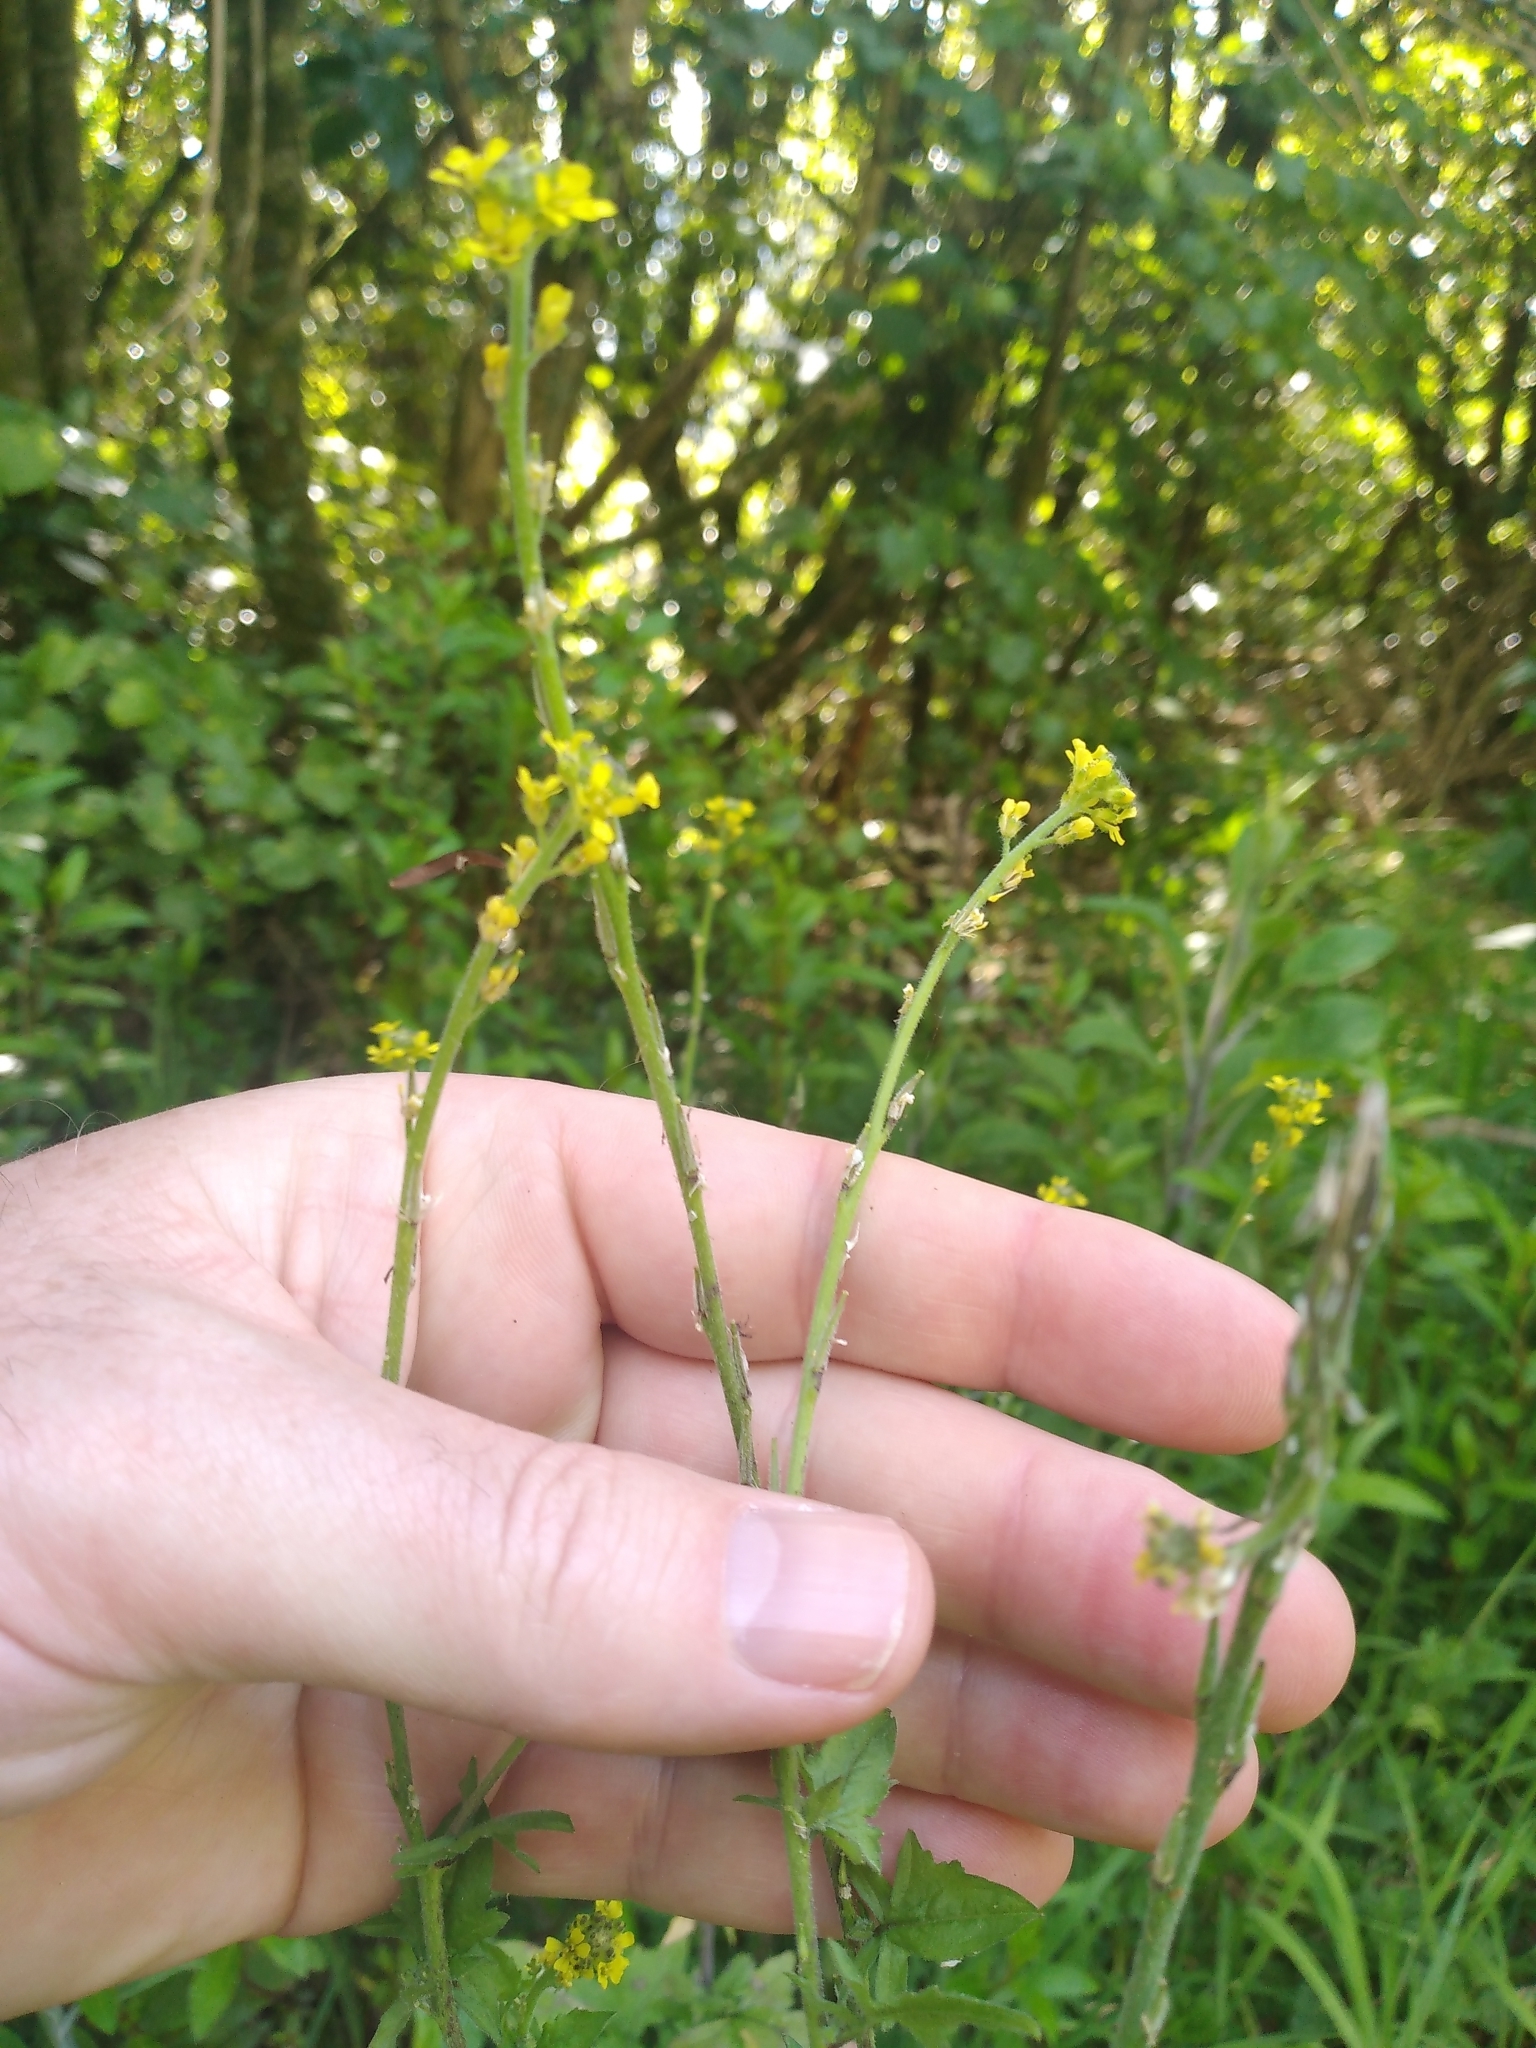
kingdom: Plantae
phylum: Tracheophyta
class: Magnoliopsida
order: Brassicales
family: Brassicaceae
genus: Sisymbrium
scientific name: Sisymbrium officinale
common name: Hedge mustard
